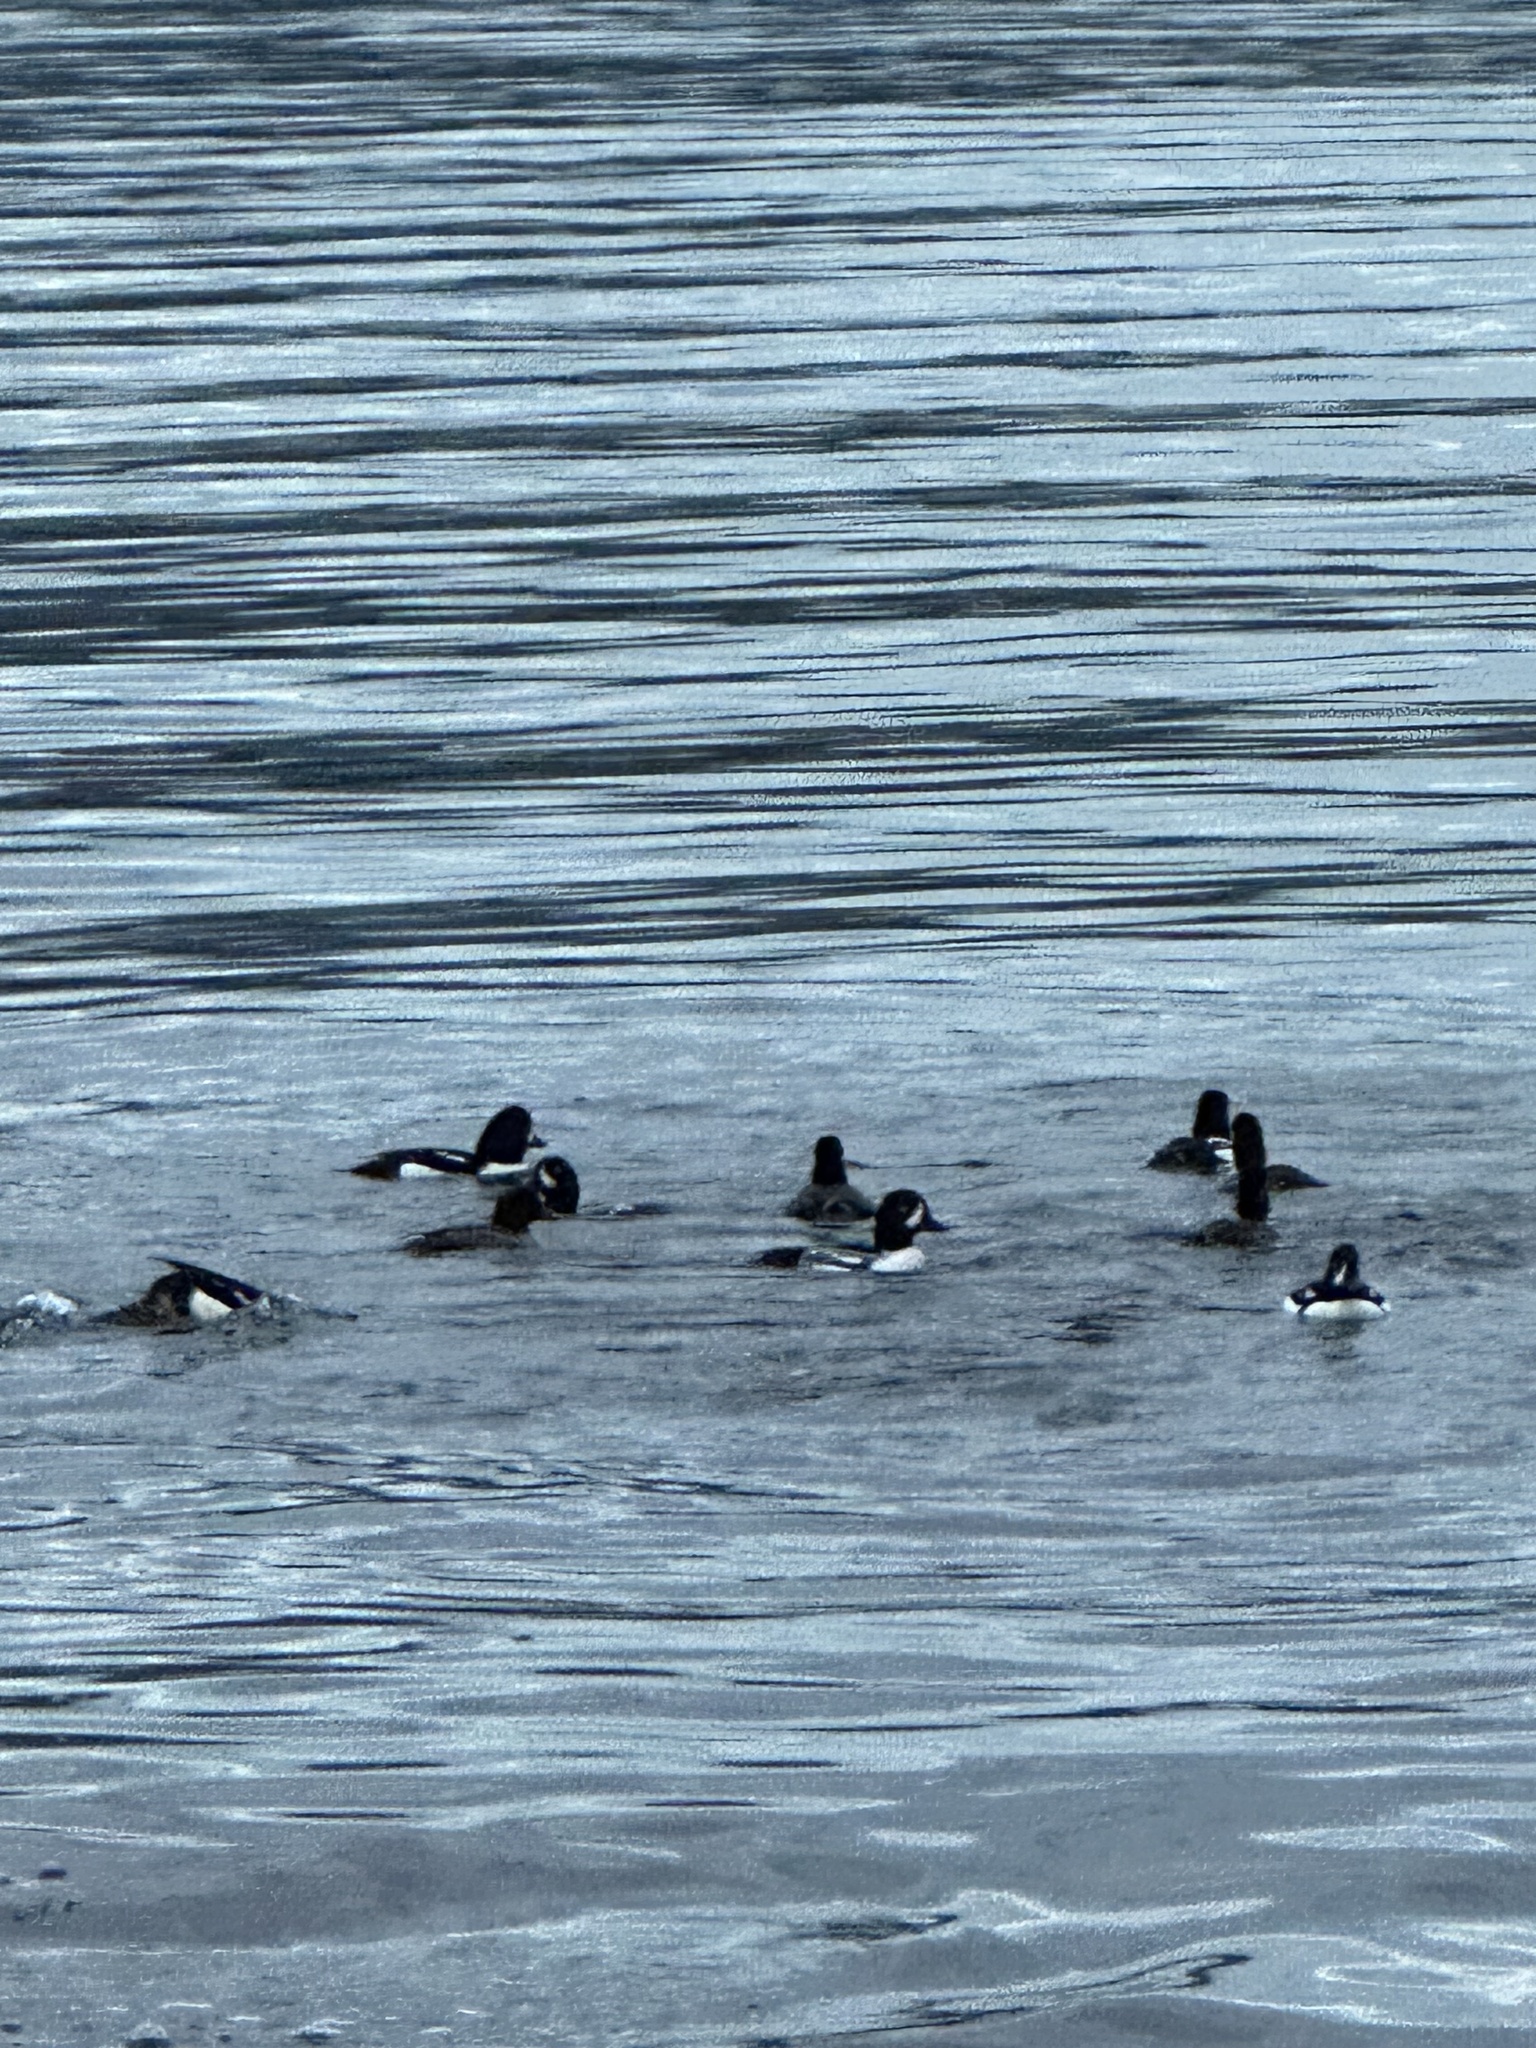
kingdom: Animalia
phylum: Chordata
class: Aves
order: Anseriformes
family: Anatidae
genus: Bucephala
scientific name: Bucephala islandica
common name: Barrow's goldeneye
